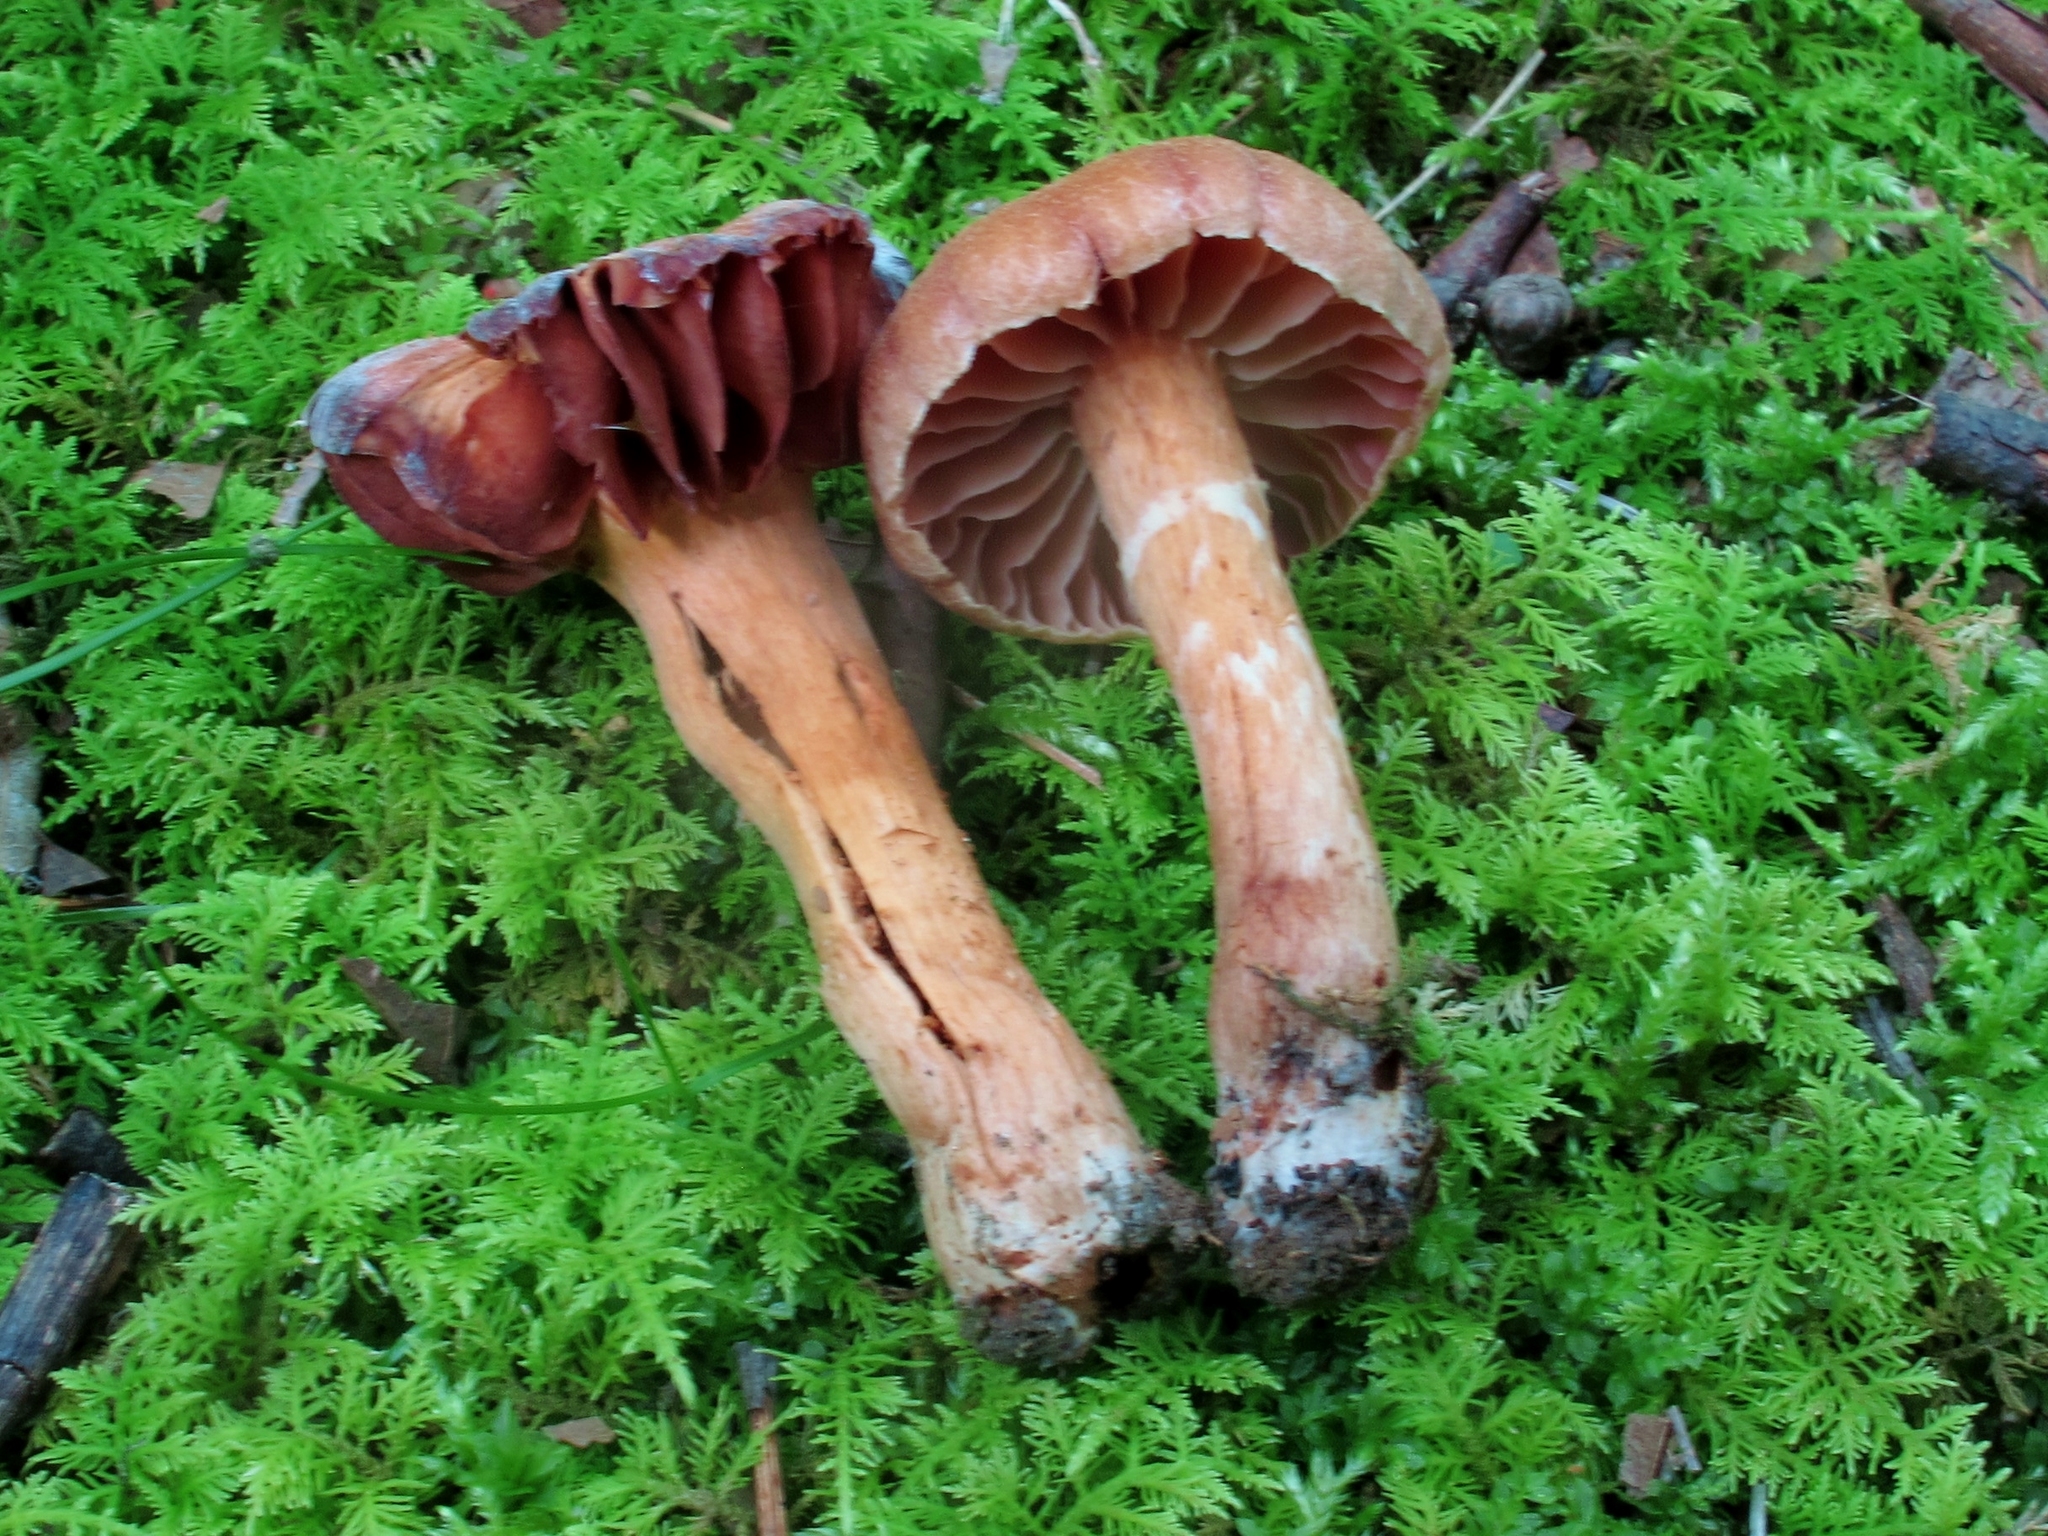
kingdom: Fungi
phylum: Basidiomycota
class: Agaricomycetes
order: Agaricales
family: Cortinariaceae
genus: Cortinarius
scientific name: Cortinarius
